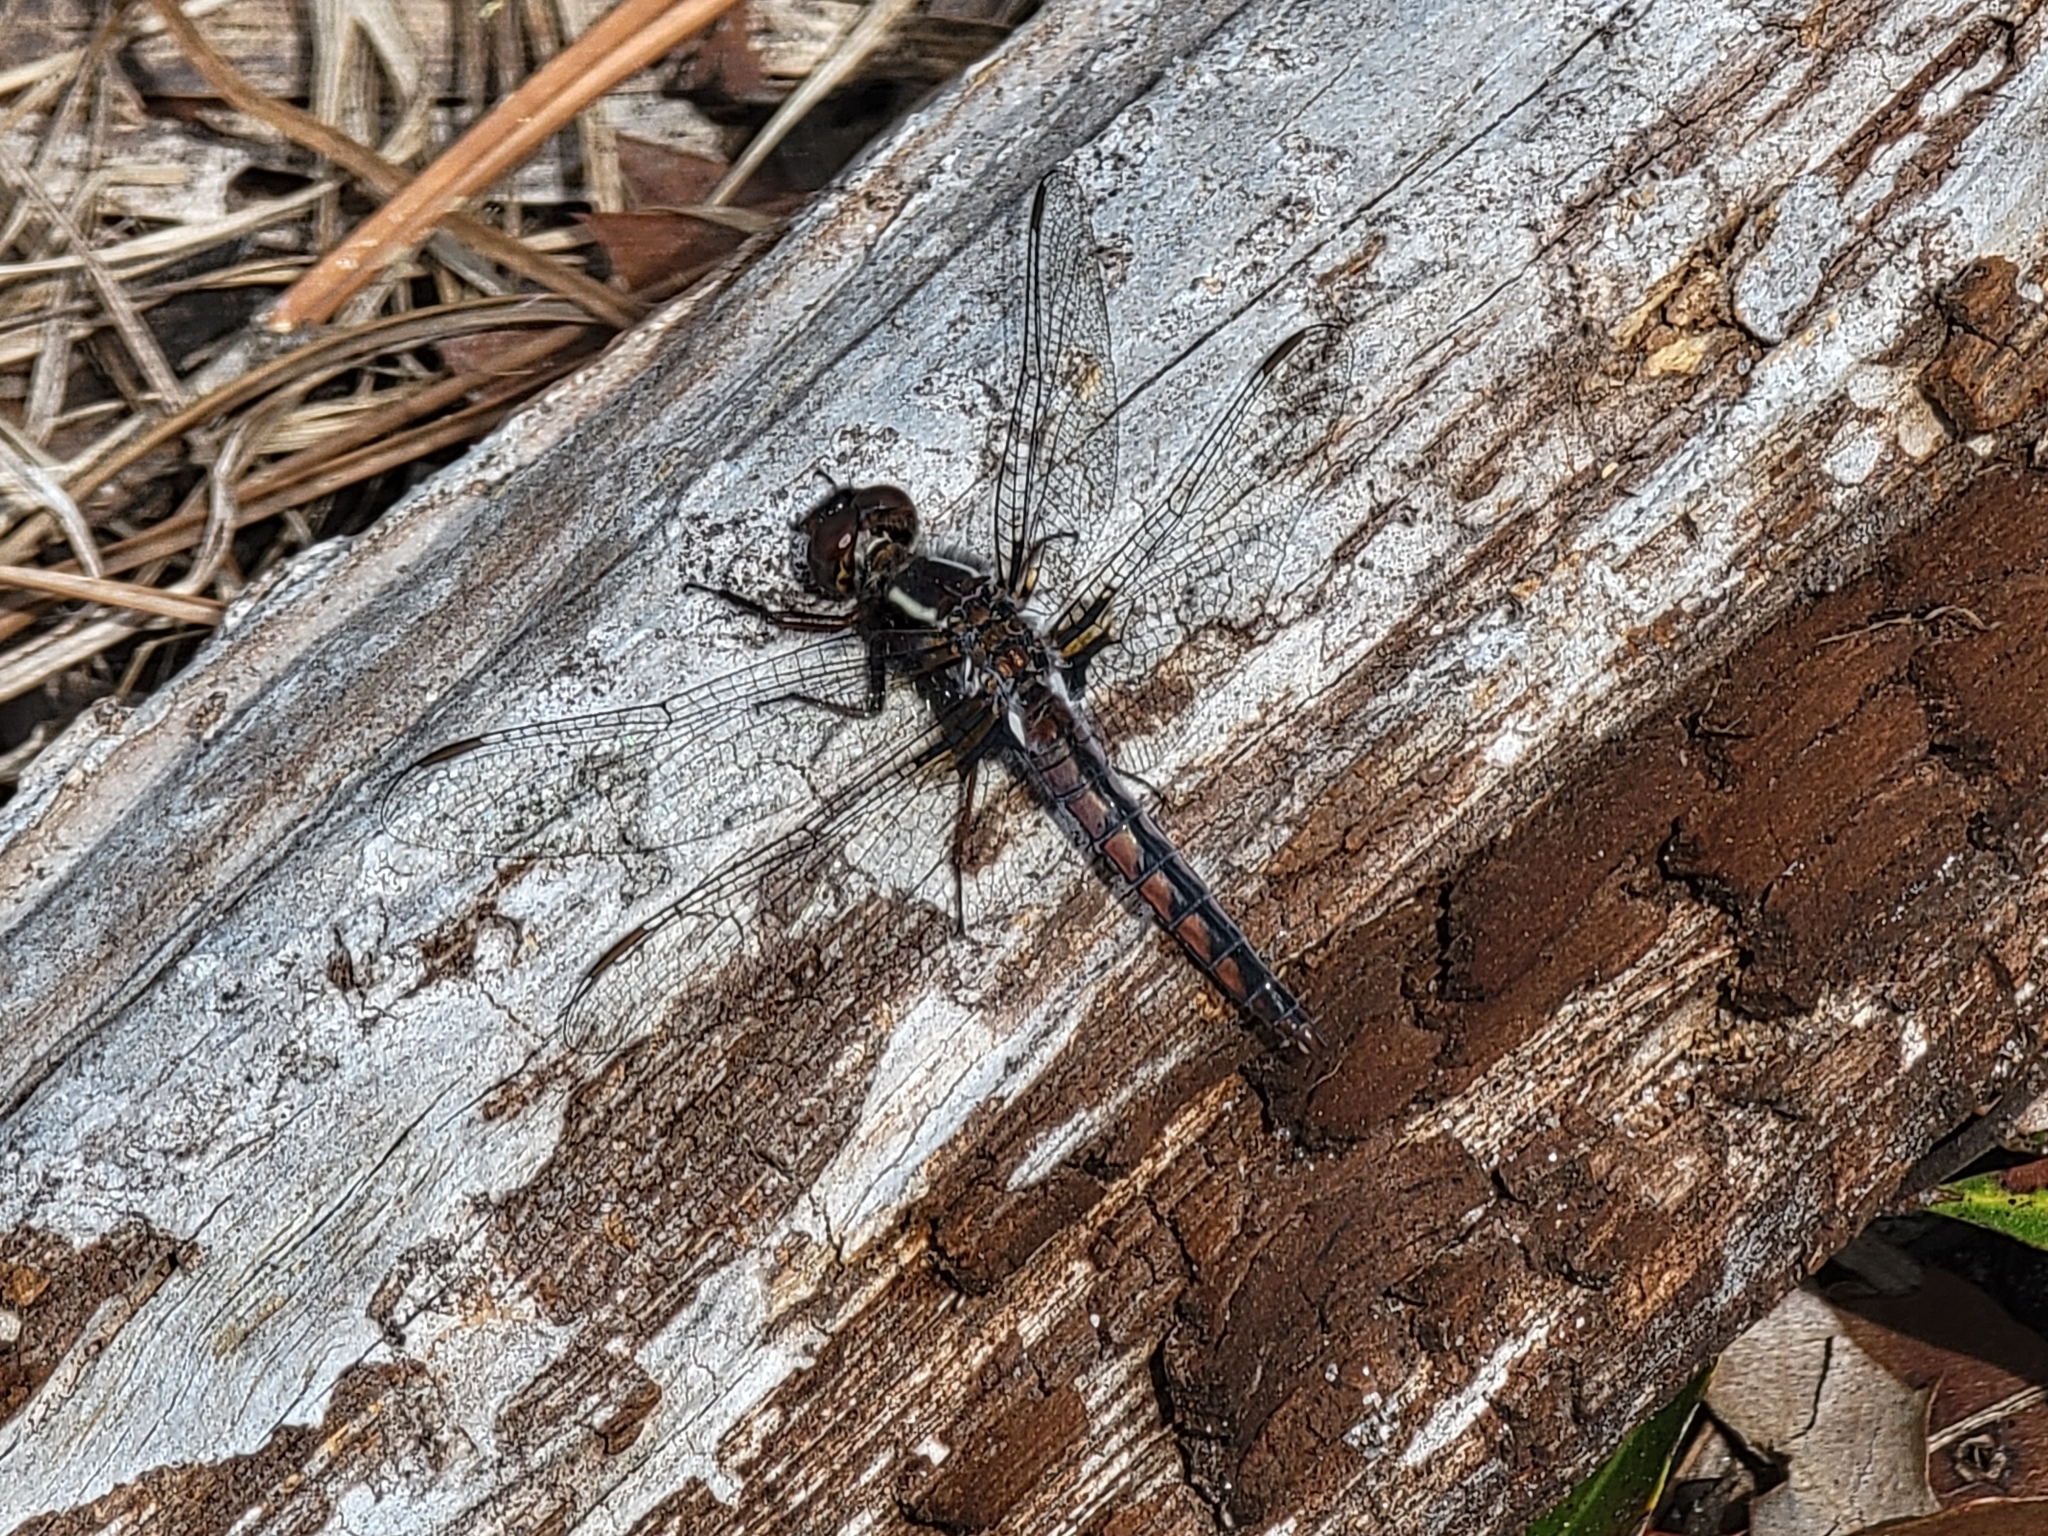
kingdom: Animalia
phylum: Arthropoda
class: Insecta
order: Odonata
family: Libellulidae
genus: Ladona
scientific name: Ladona deplanata
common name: Blue corporal
